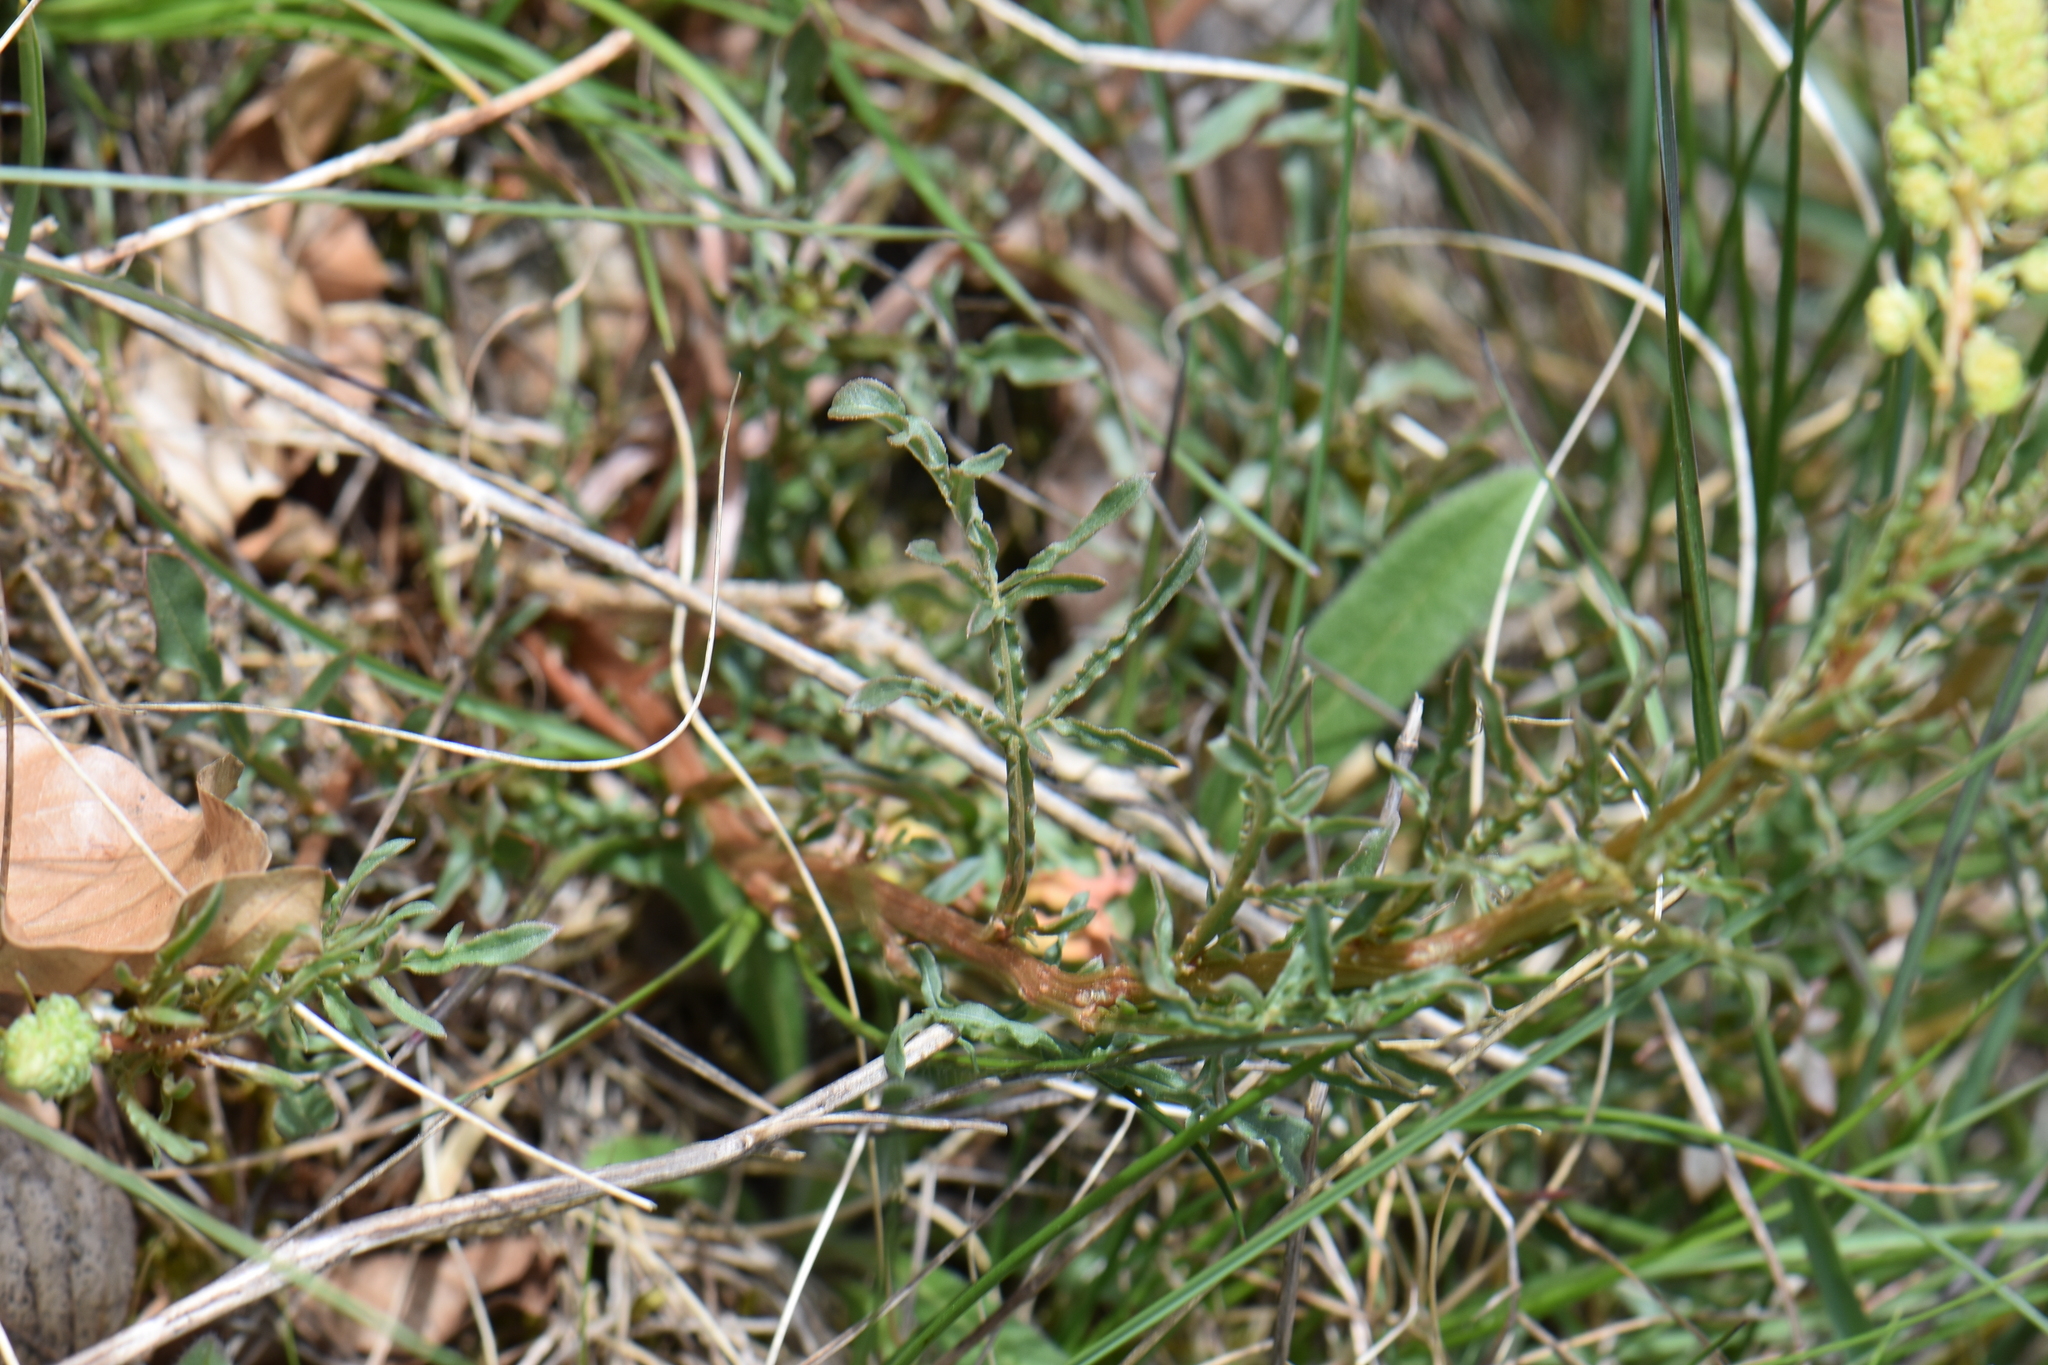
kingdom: Plantae
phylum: Tracheophyta
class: Magnoliopsida
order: Brassicales
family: Resedaceae
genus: Reseda
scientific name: Reseda lutea
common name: Wild mignonette
